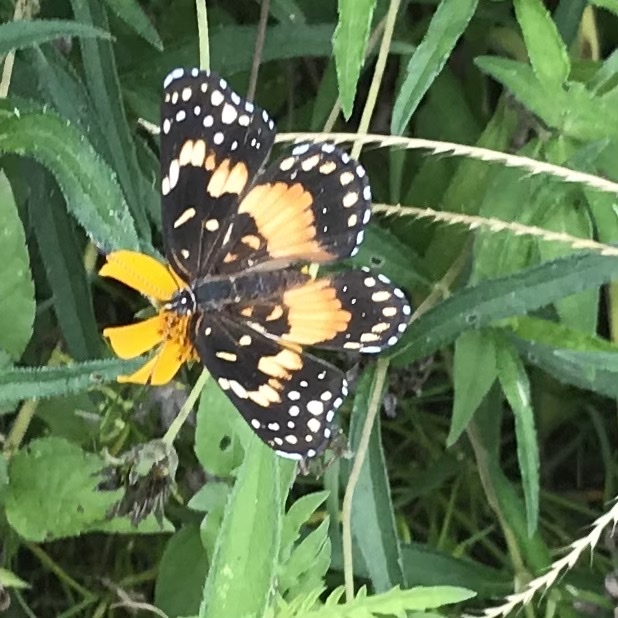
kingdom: Animalia
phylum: Arthropoda
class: Insecta
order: Lepidoptera
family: Nymphalidae
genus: Chlosyne
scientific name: Chlosyne lacinia
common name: Bordered patch
